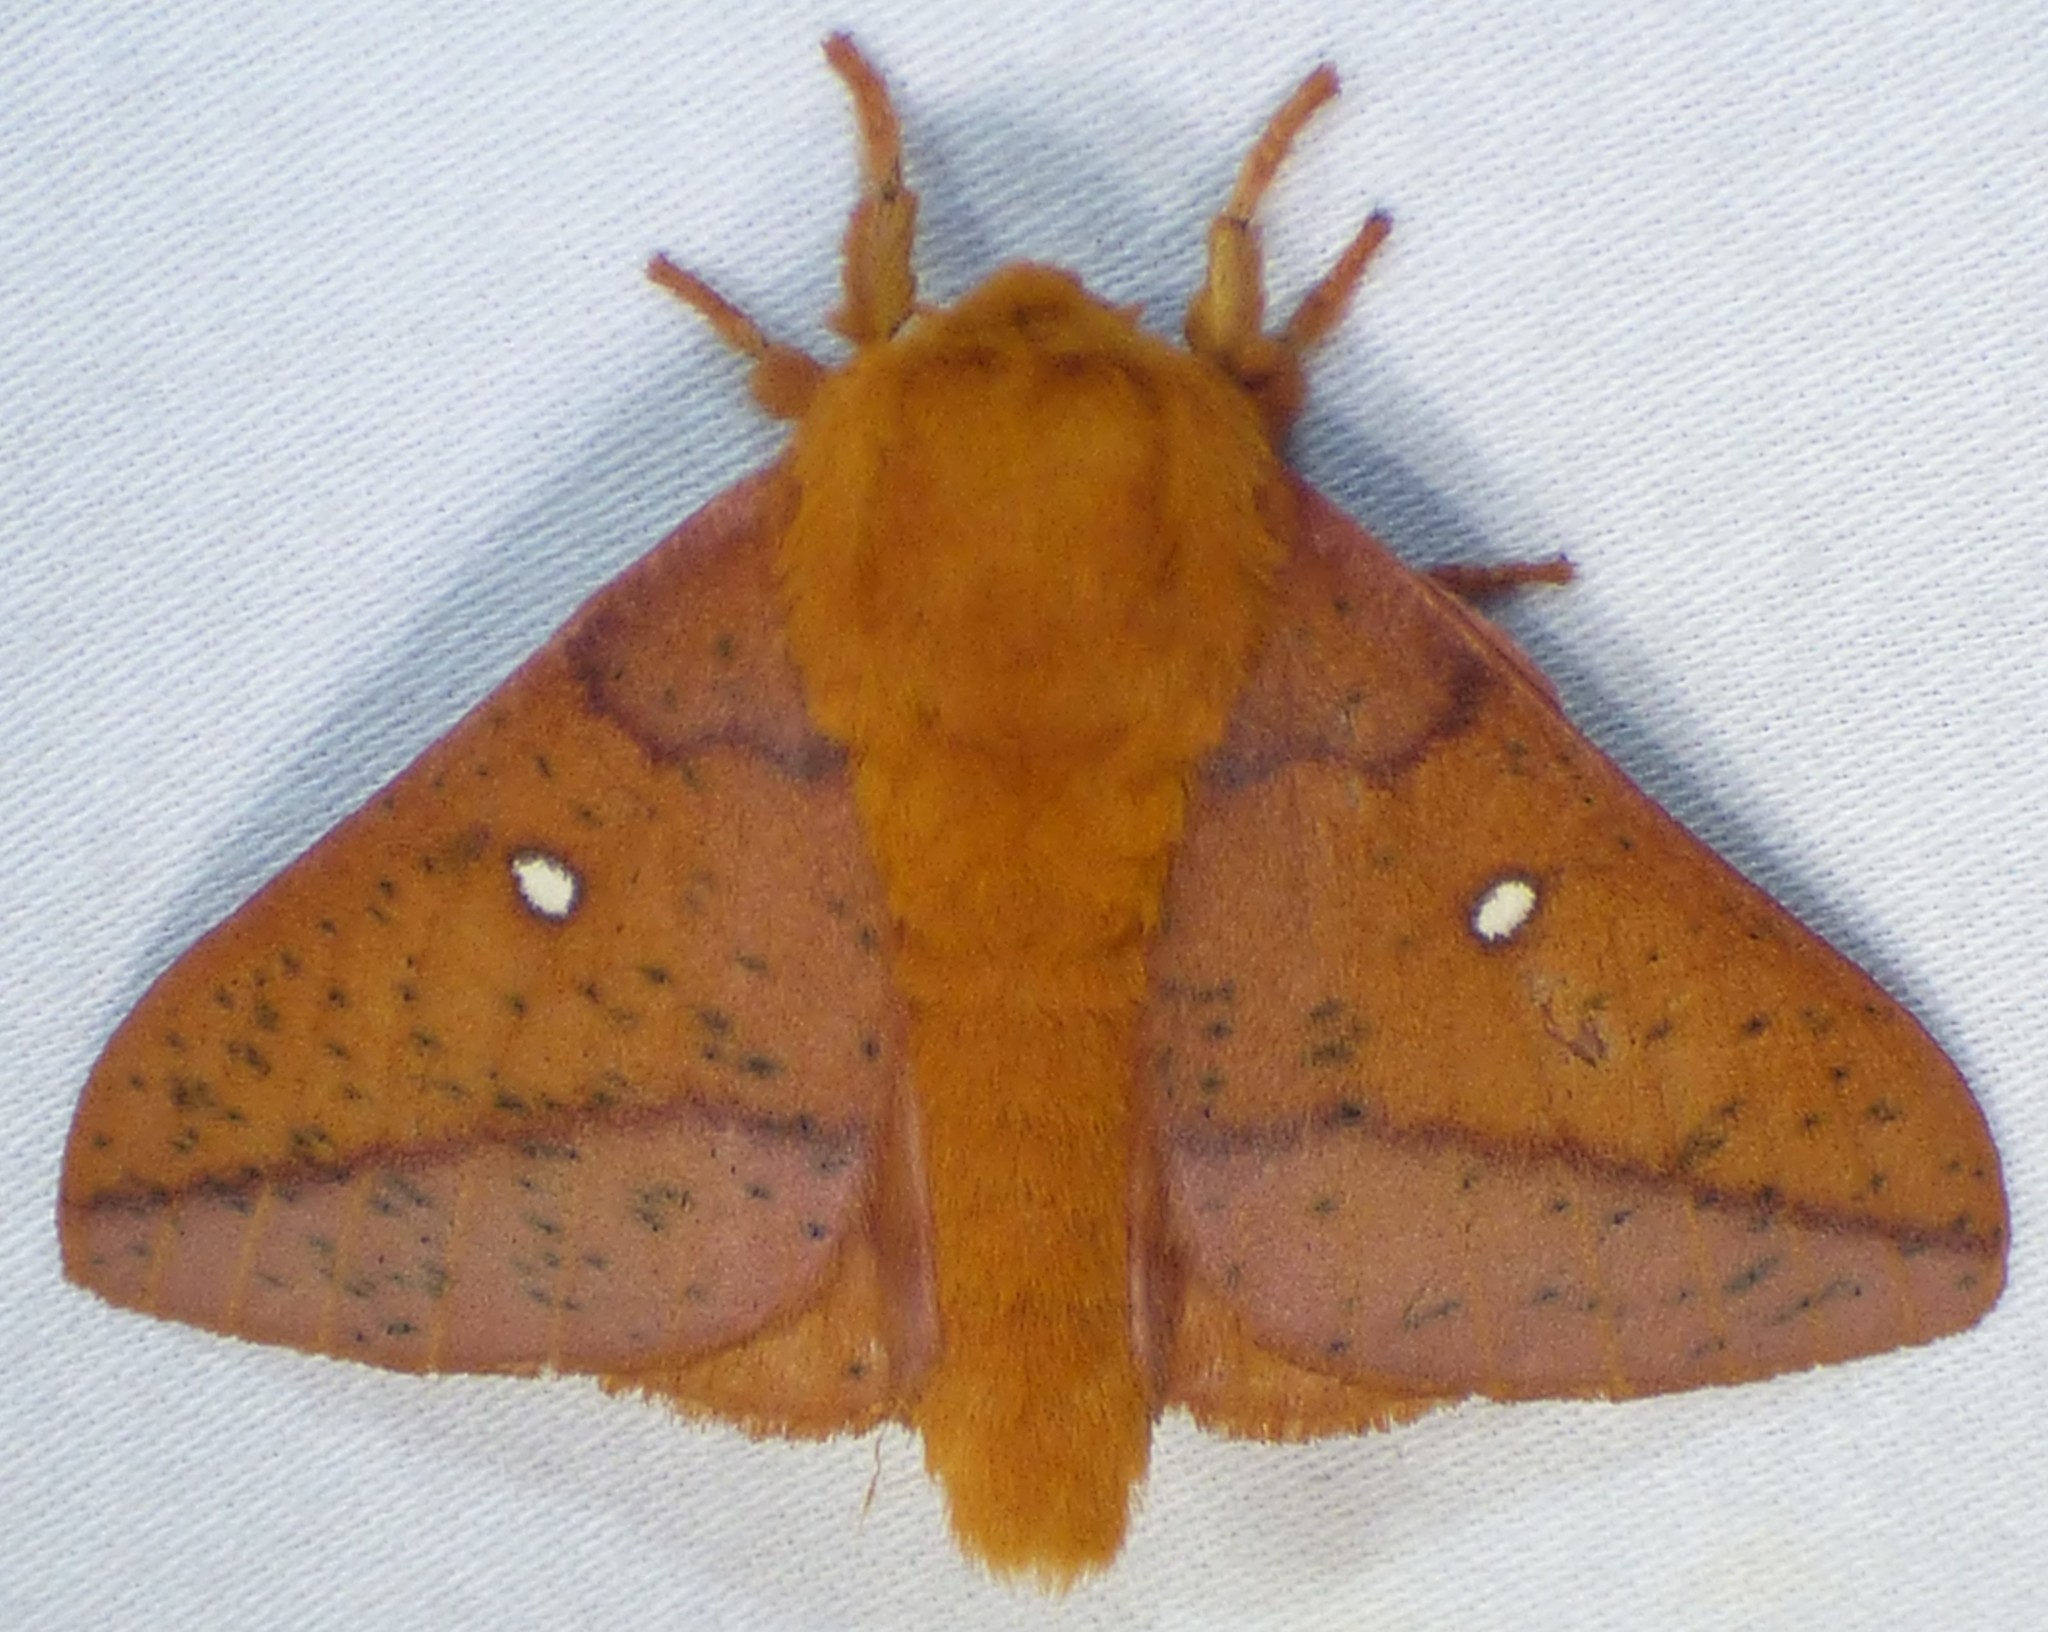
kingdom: Animalia
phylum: Arthropoda
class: Insecta
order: Lepidoptera
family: Saturniidae
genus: Anisota
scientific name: Anisota stigma
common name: Spiny oakworm moth
